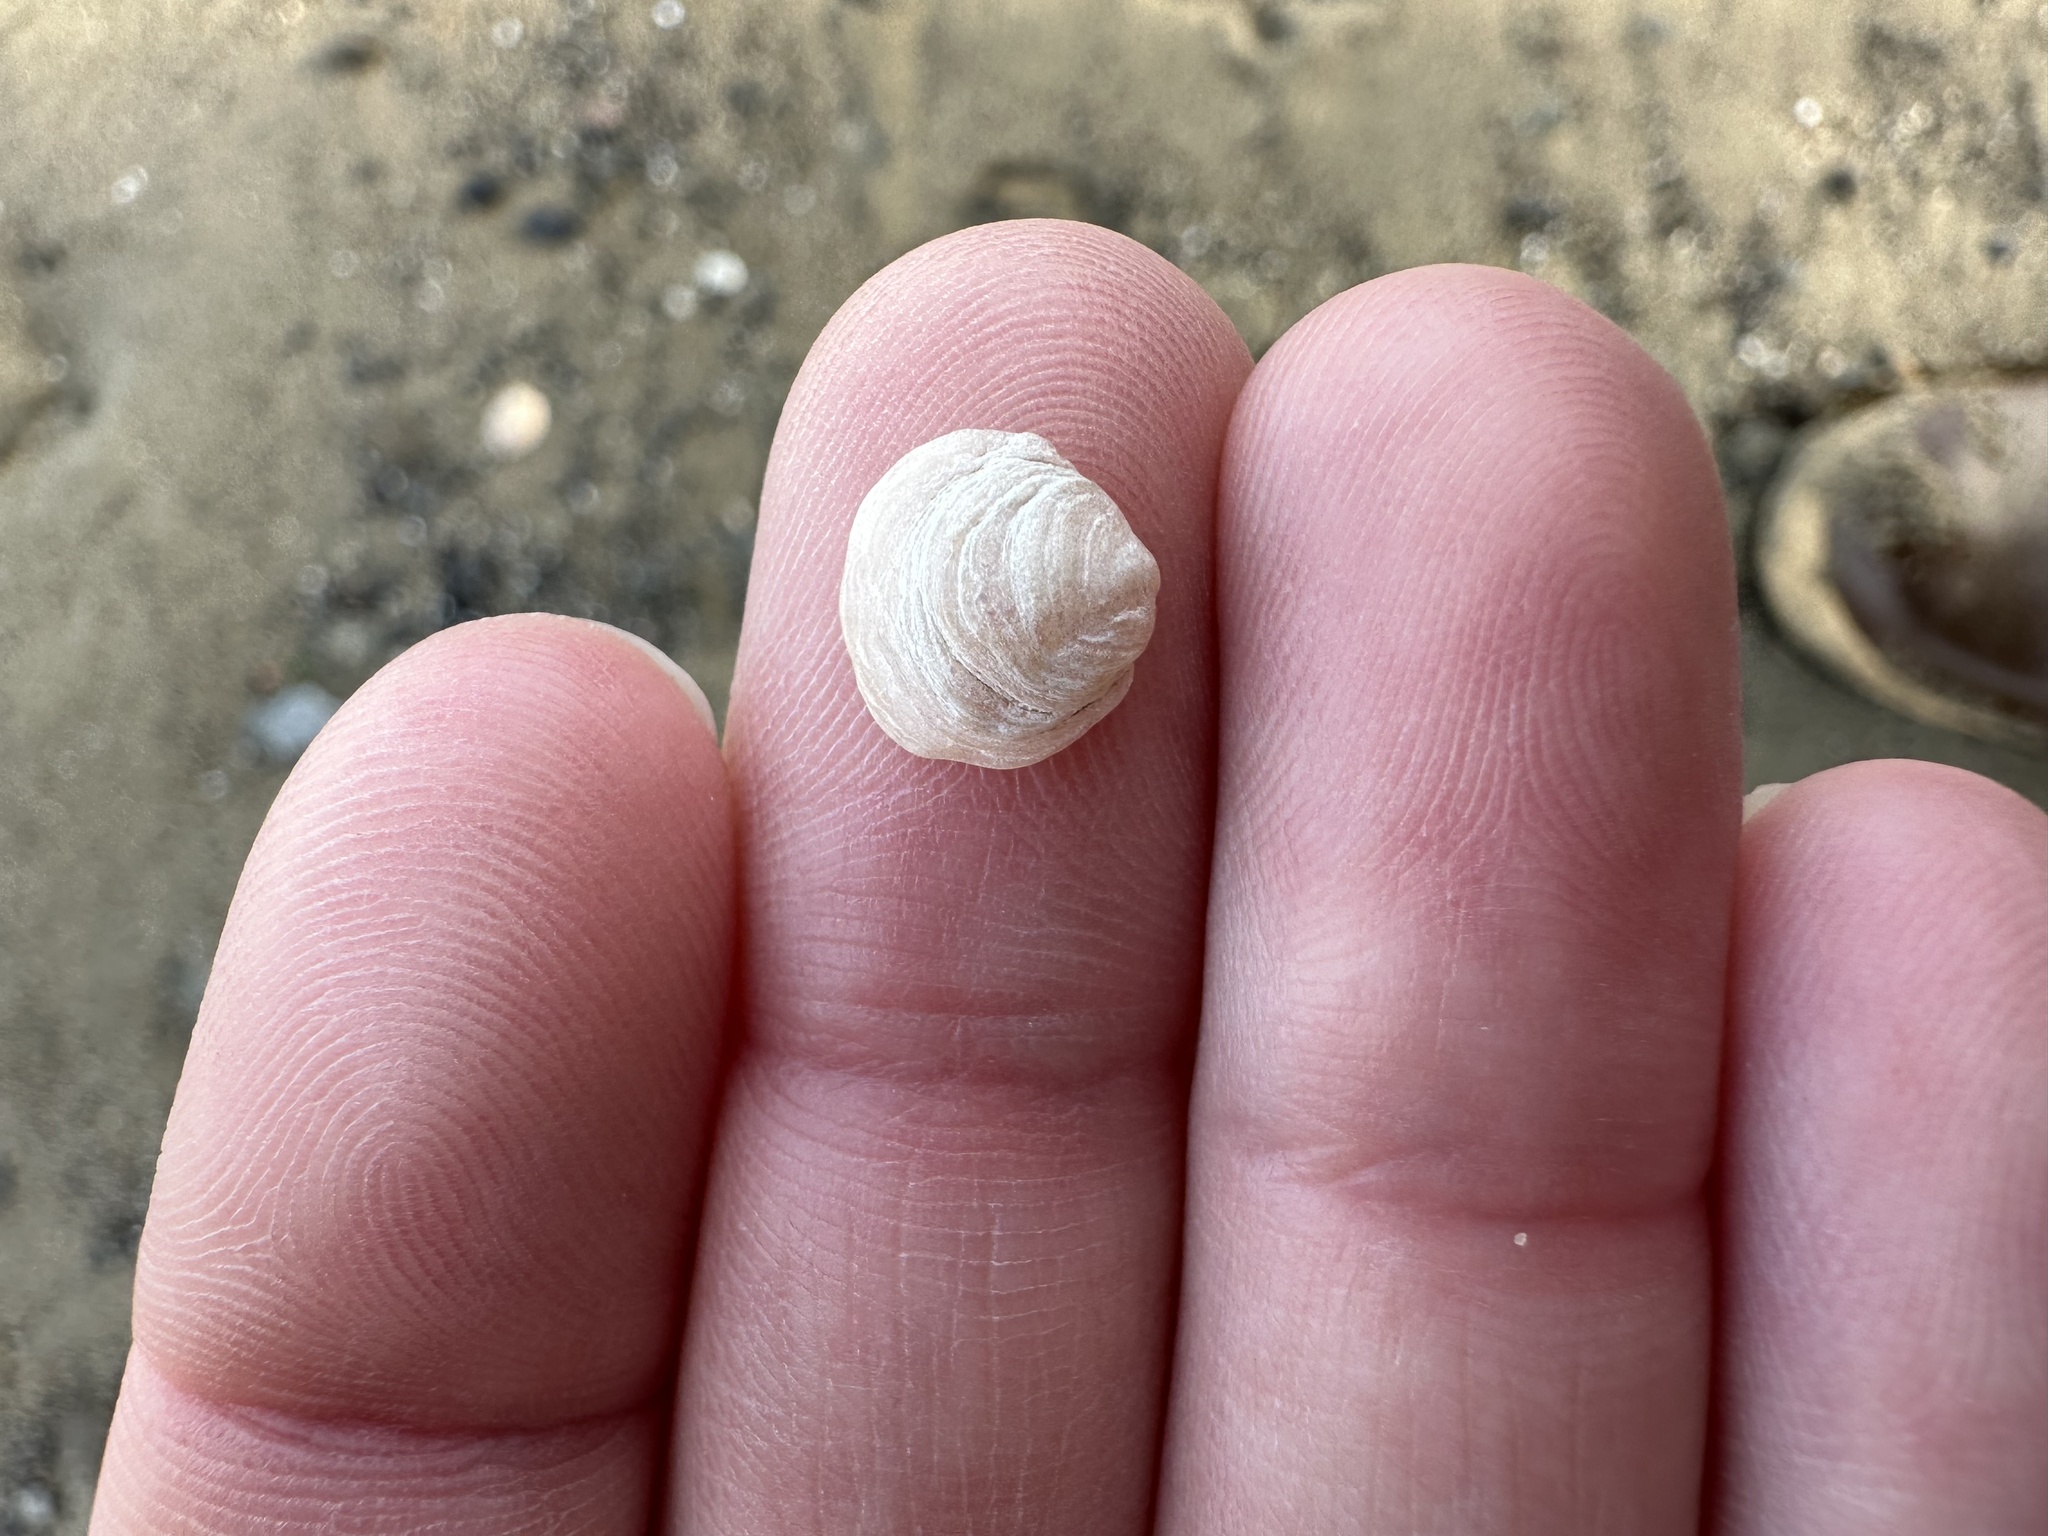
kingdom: Animalia
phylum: Mollusca
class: Bivalvia
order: Pectinida
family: Anomiidae
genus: Heteranomia
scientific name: Heteranomia squamula
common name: Prickly jingle
